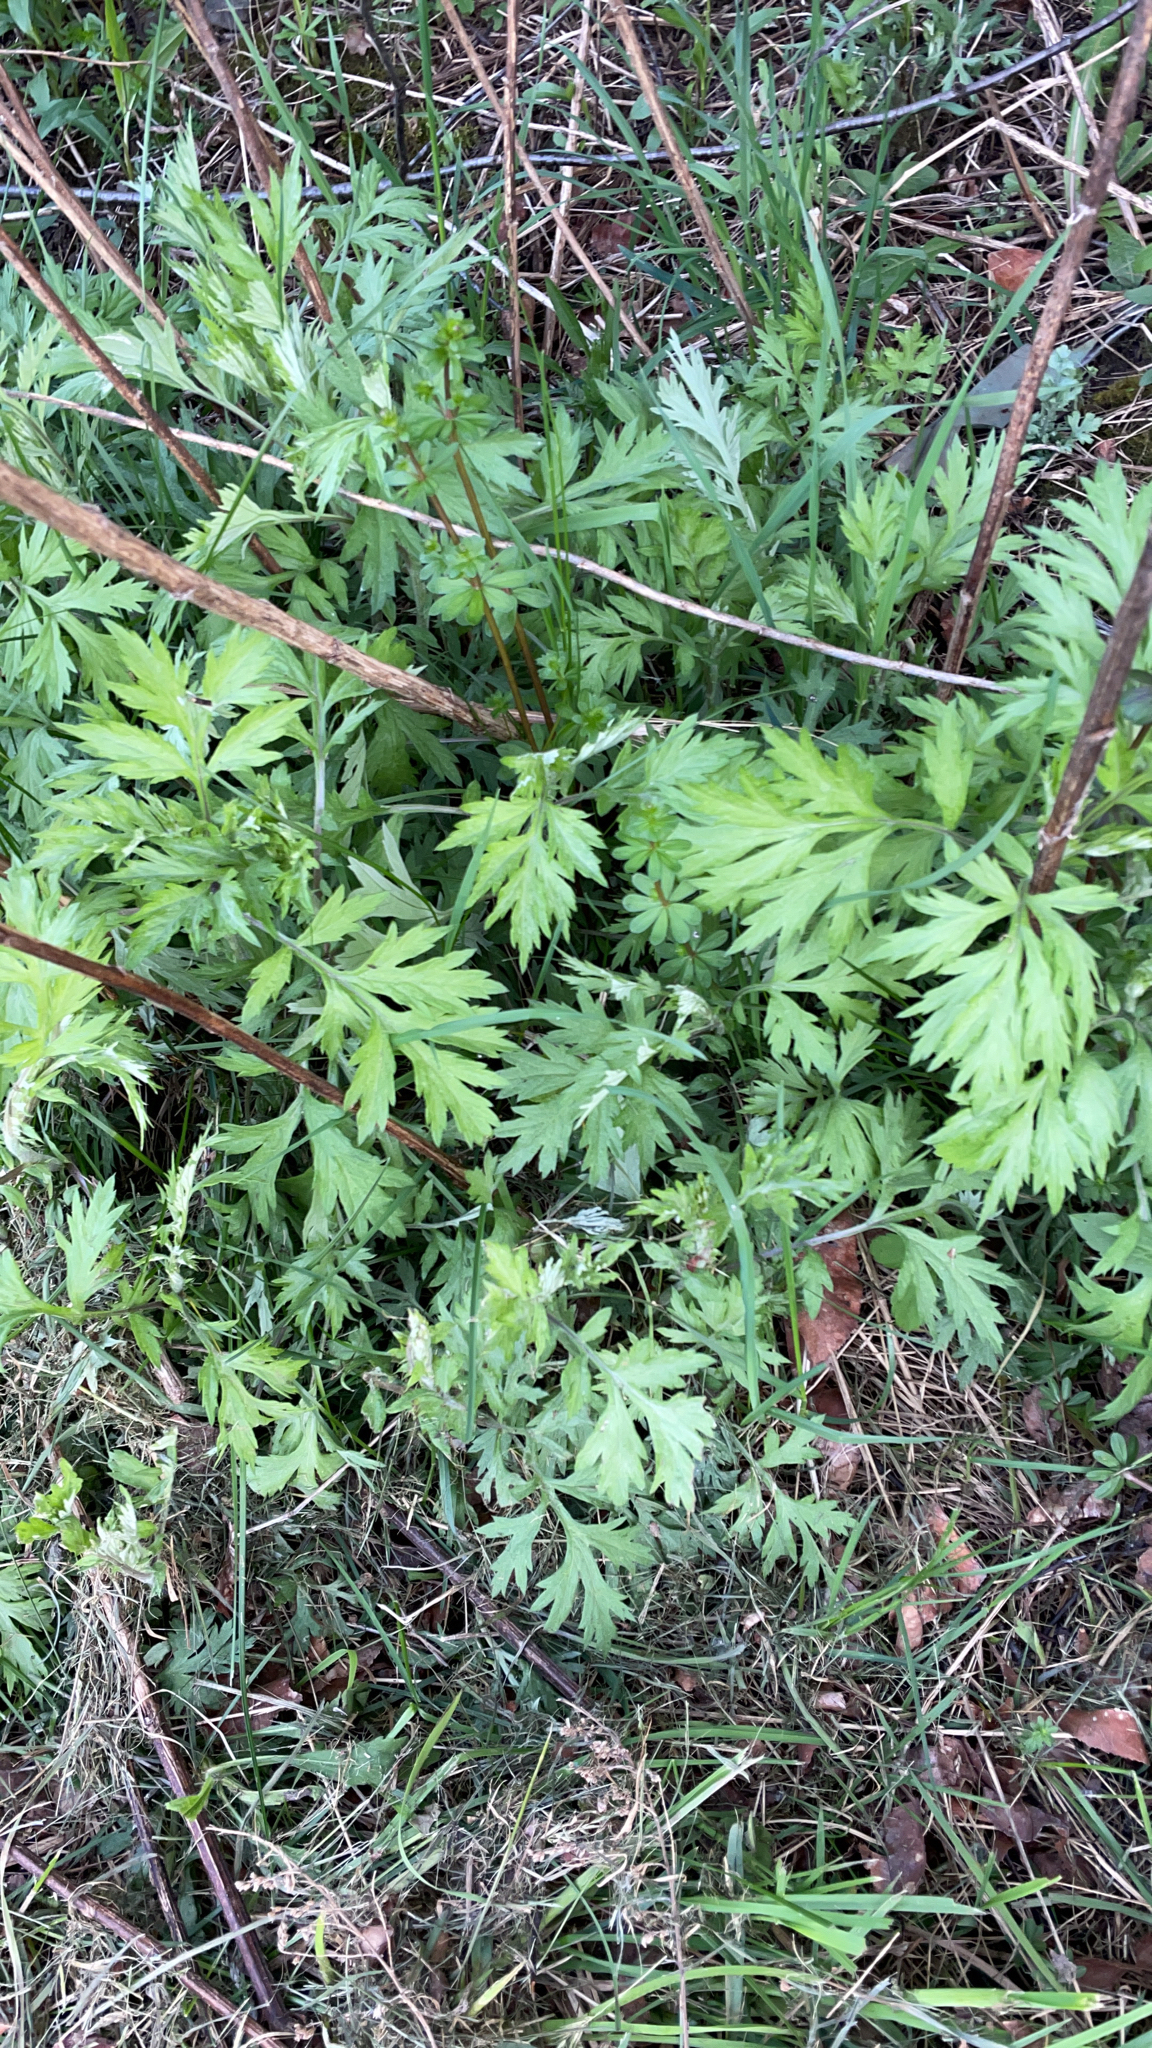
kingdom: Plantae
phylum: Tracheophyta
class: Magnoliopsida
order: Asterales
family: Asteraceae
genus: Artemisia
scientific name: Artemisia vulgaris
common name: Mugwort
